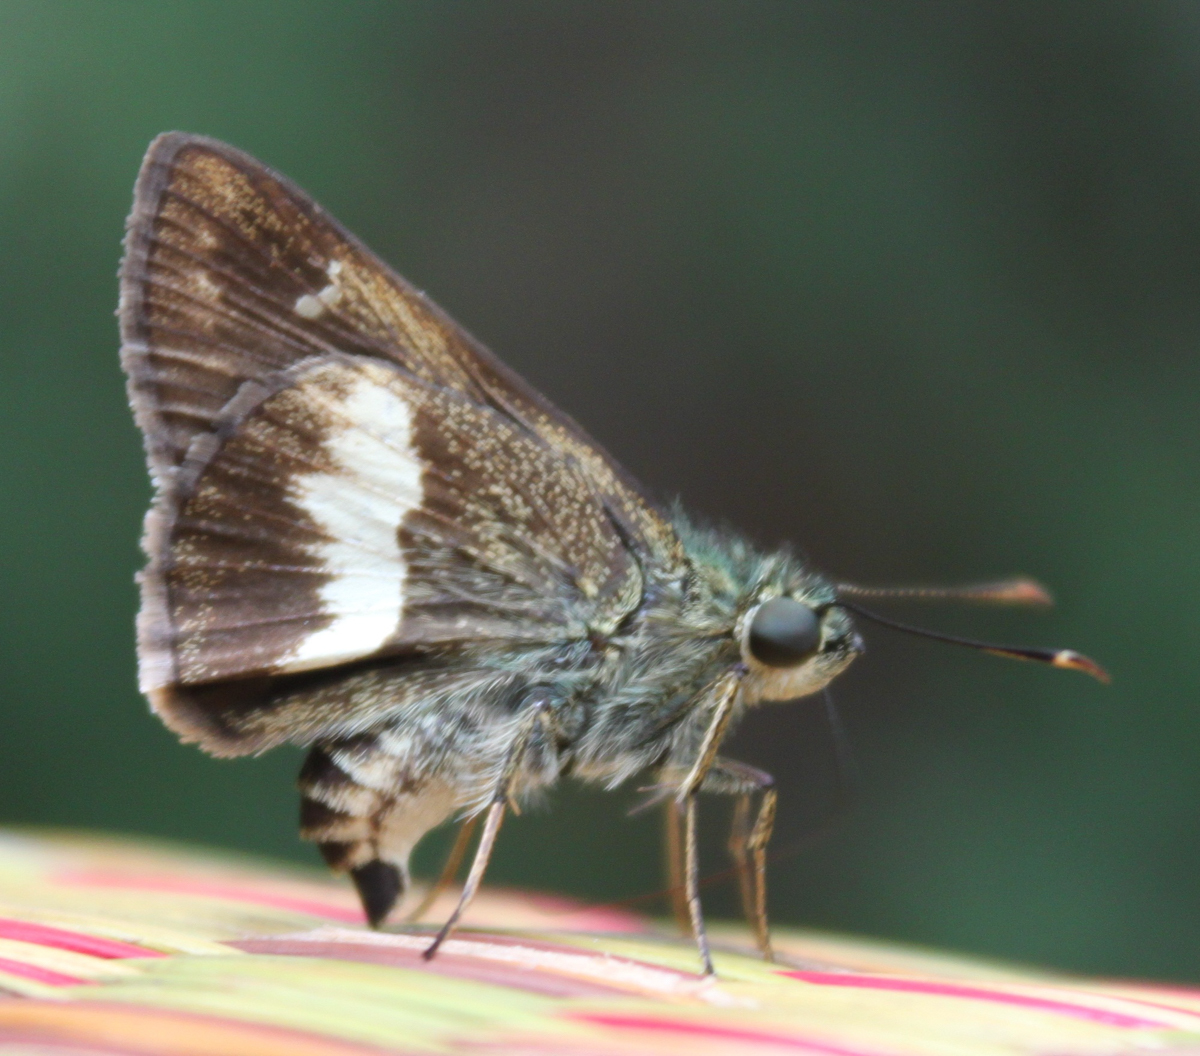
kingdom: Animalia
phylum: Arthropoda
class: Insecta
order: Lepidoptera
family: Hesperiidae
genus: Halpe
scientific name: Halpe zola
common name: Long-banded ace
